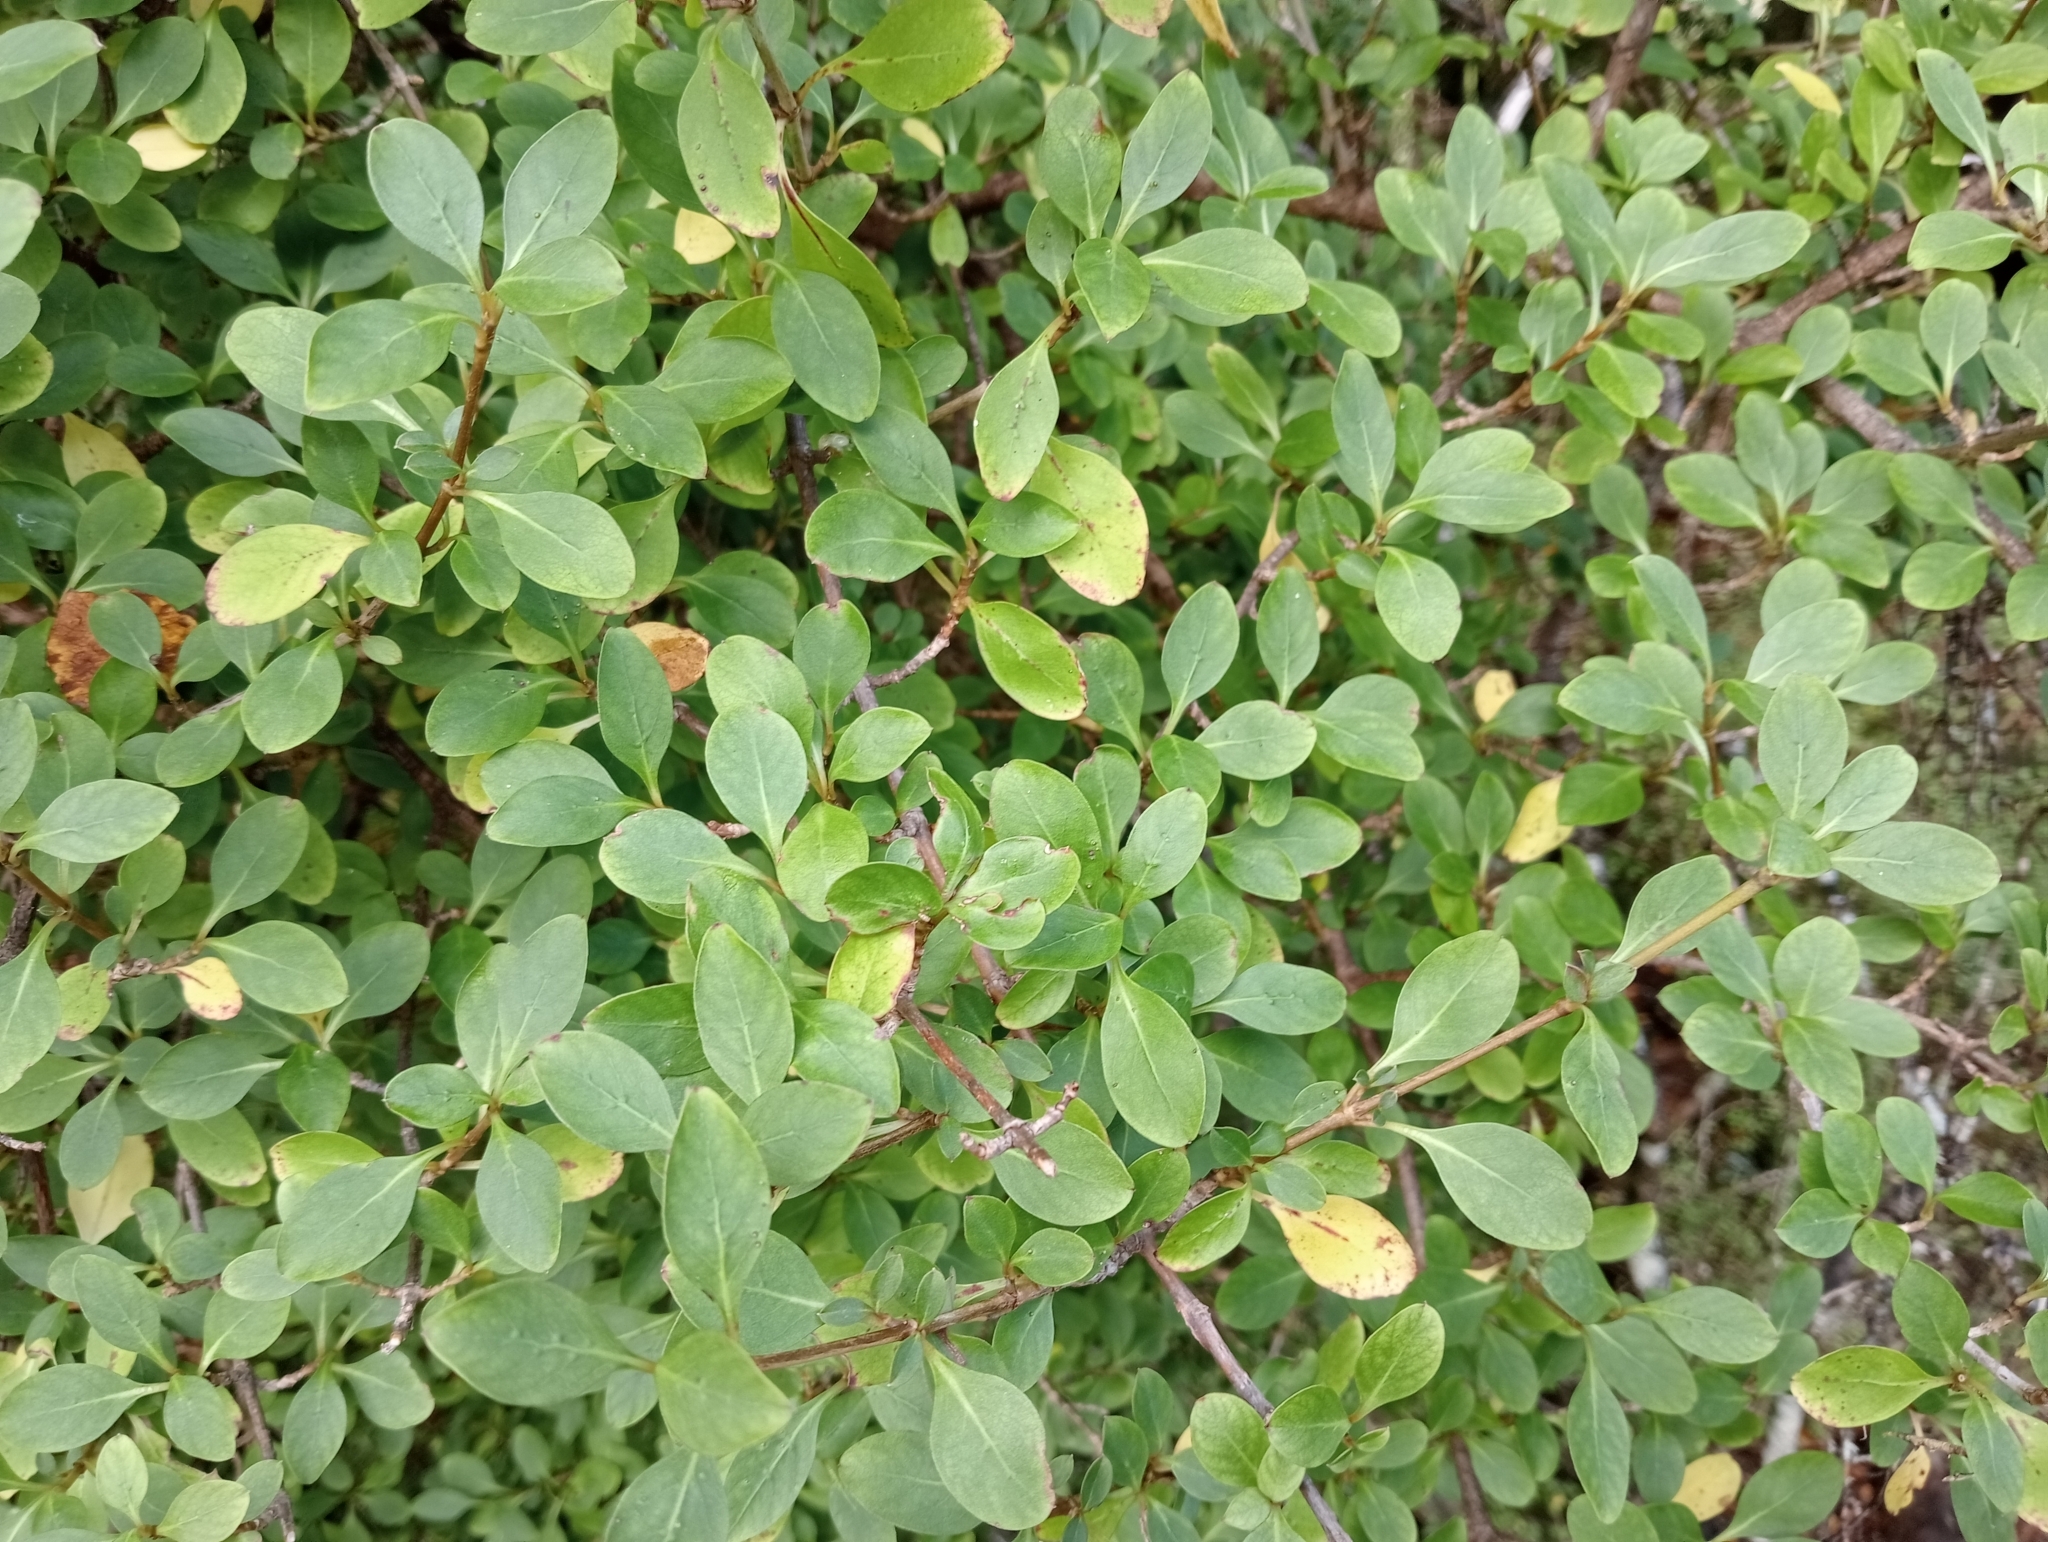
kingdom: Plantae
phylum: Tracheophyta
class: Magnoliopsida
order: Gentianales
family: Rubiaceae
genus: Coprosma
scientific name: Coprosma foetidissima
